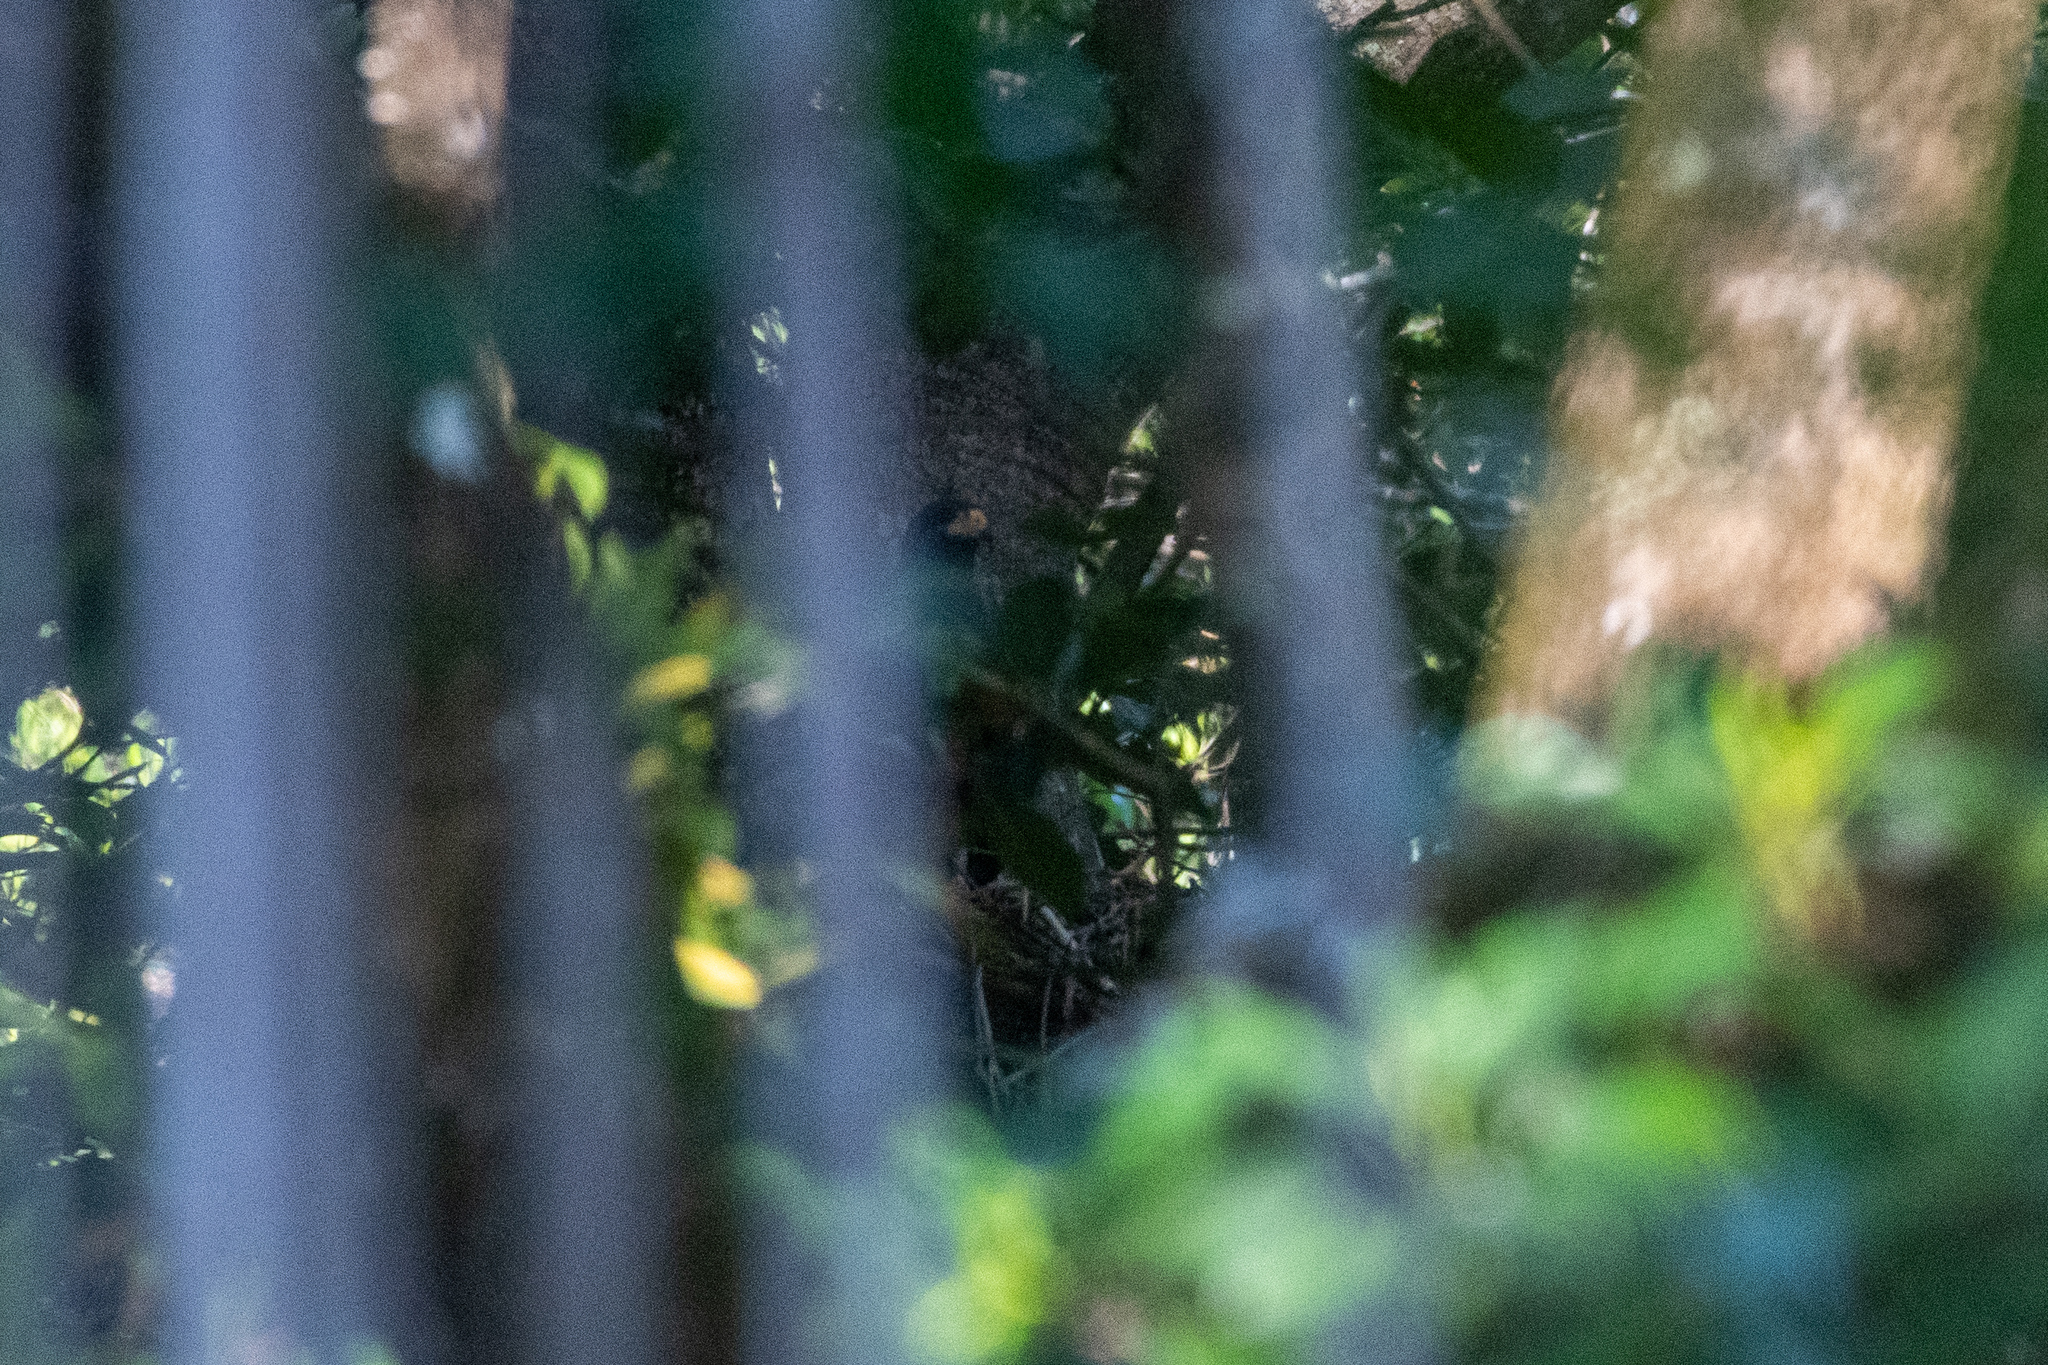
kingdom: Animalia
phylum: Chordata
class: Aves
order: Accipitriformes
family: Accipitridae
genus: Buteogallus
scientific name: Buteogallus anthracinus
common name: Common black hawk
